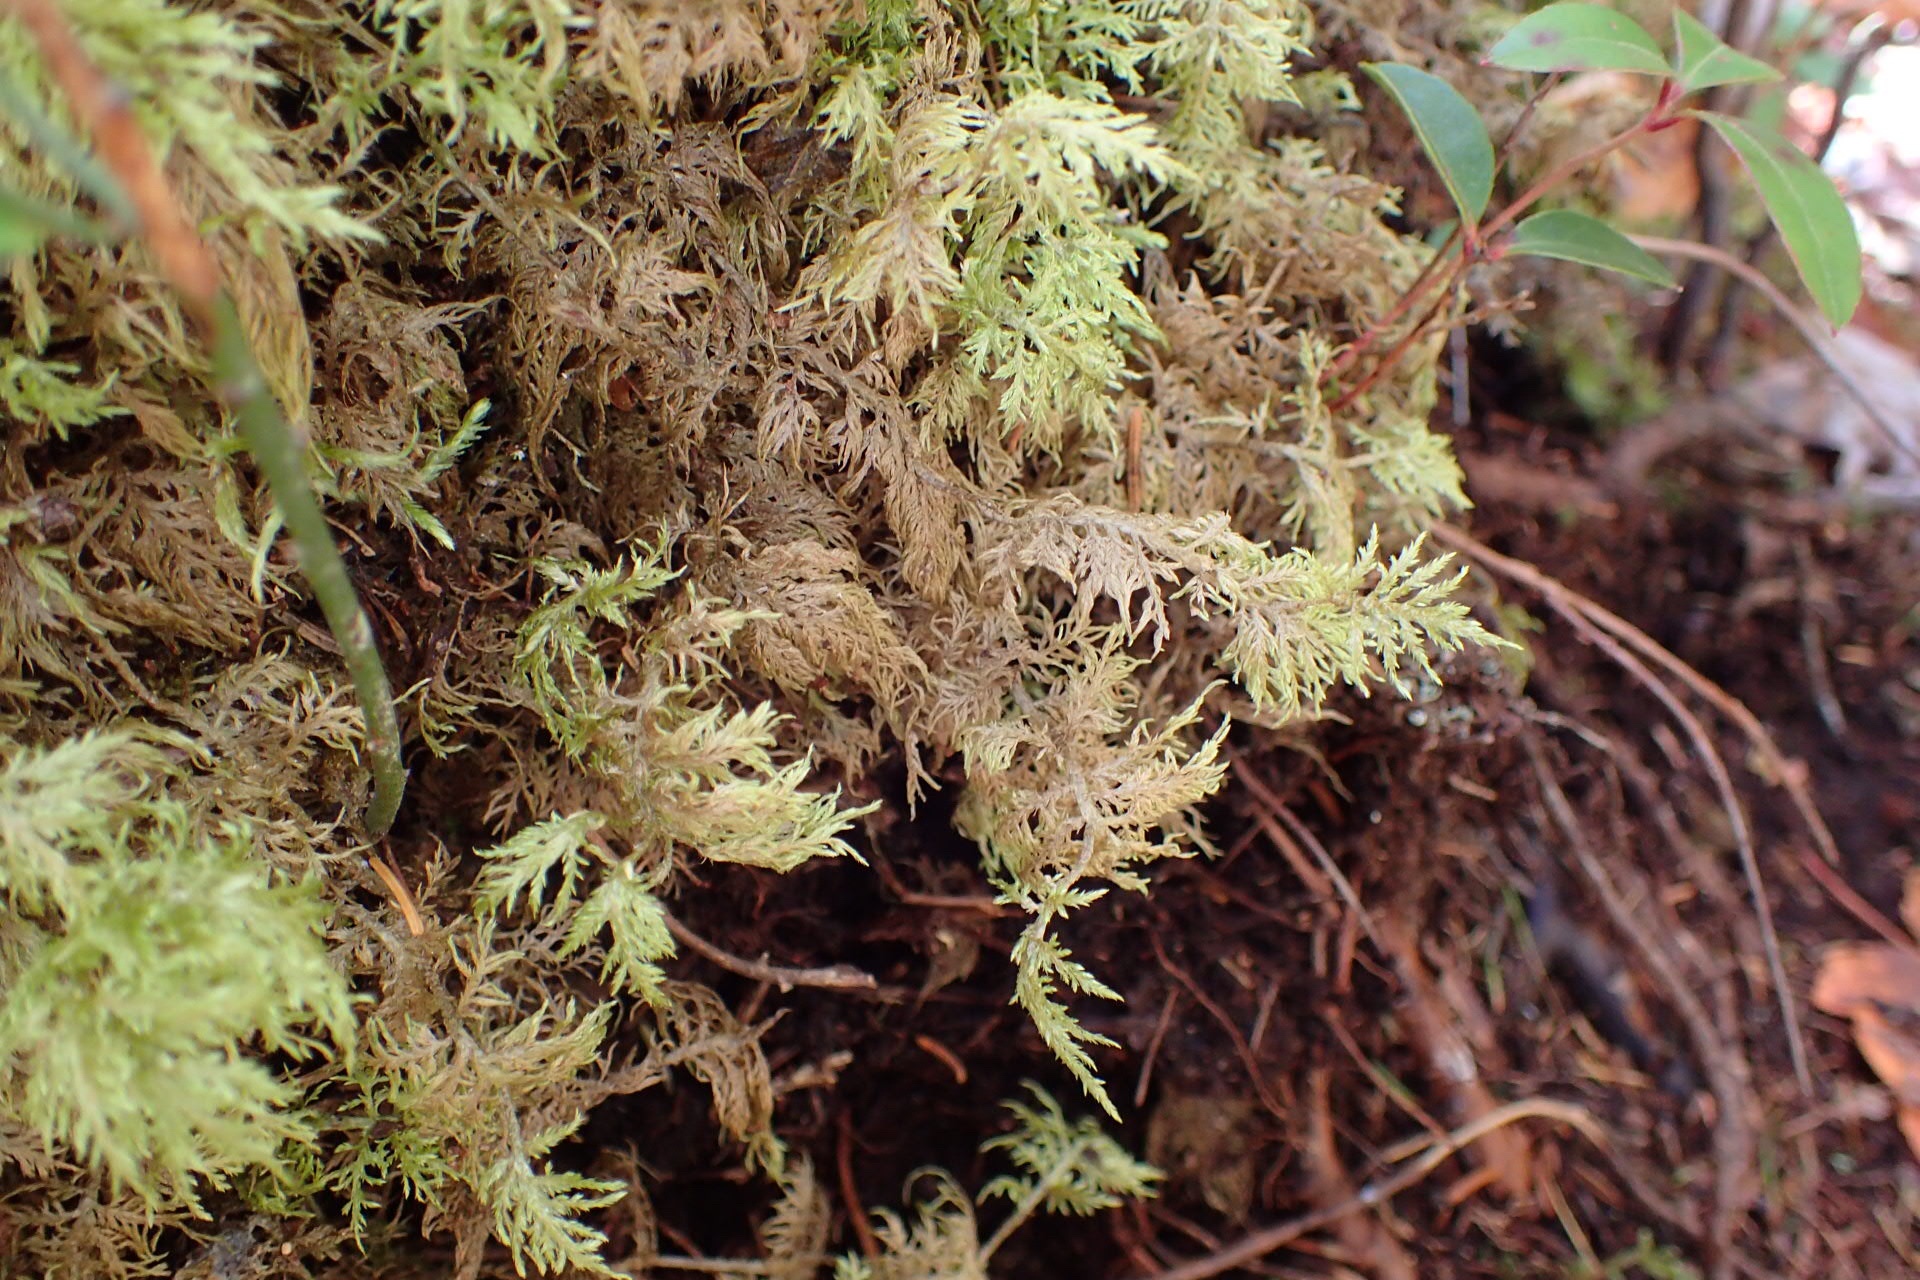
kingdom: Plantae
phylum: Bryophyta
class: Bryopsida
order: Hypnales
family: Hylocomiaceae
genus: Hylocomium
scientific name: Hylocomium splendens
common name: Stairstep moss
